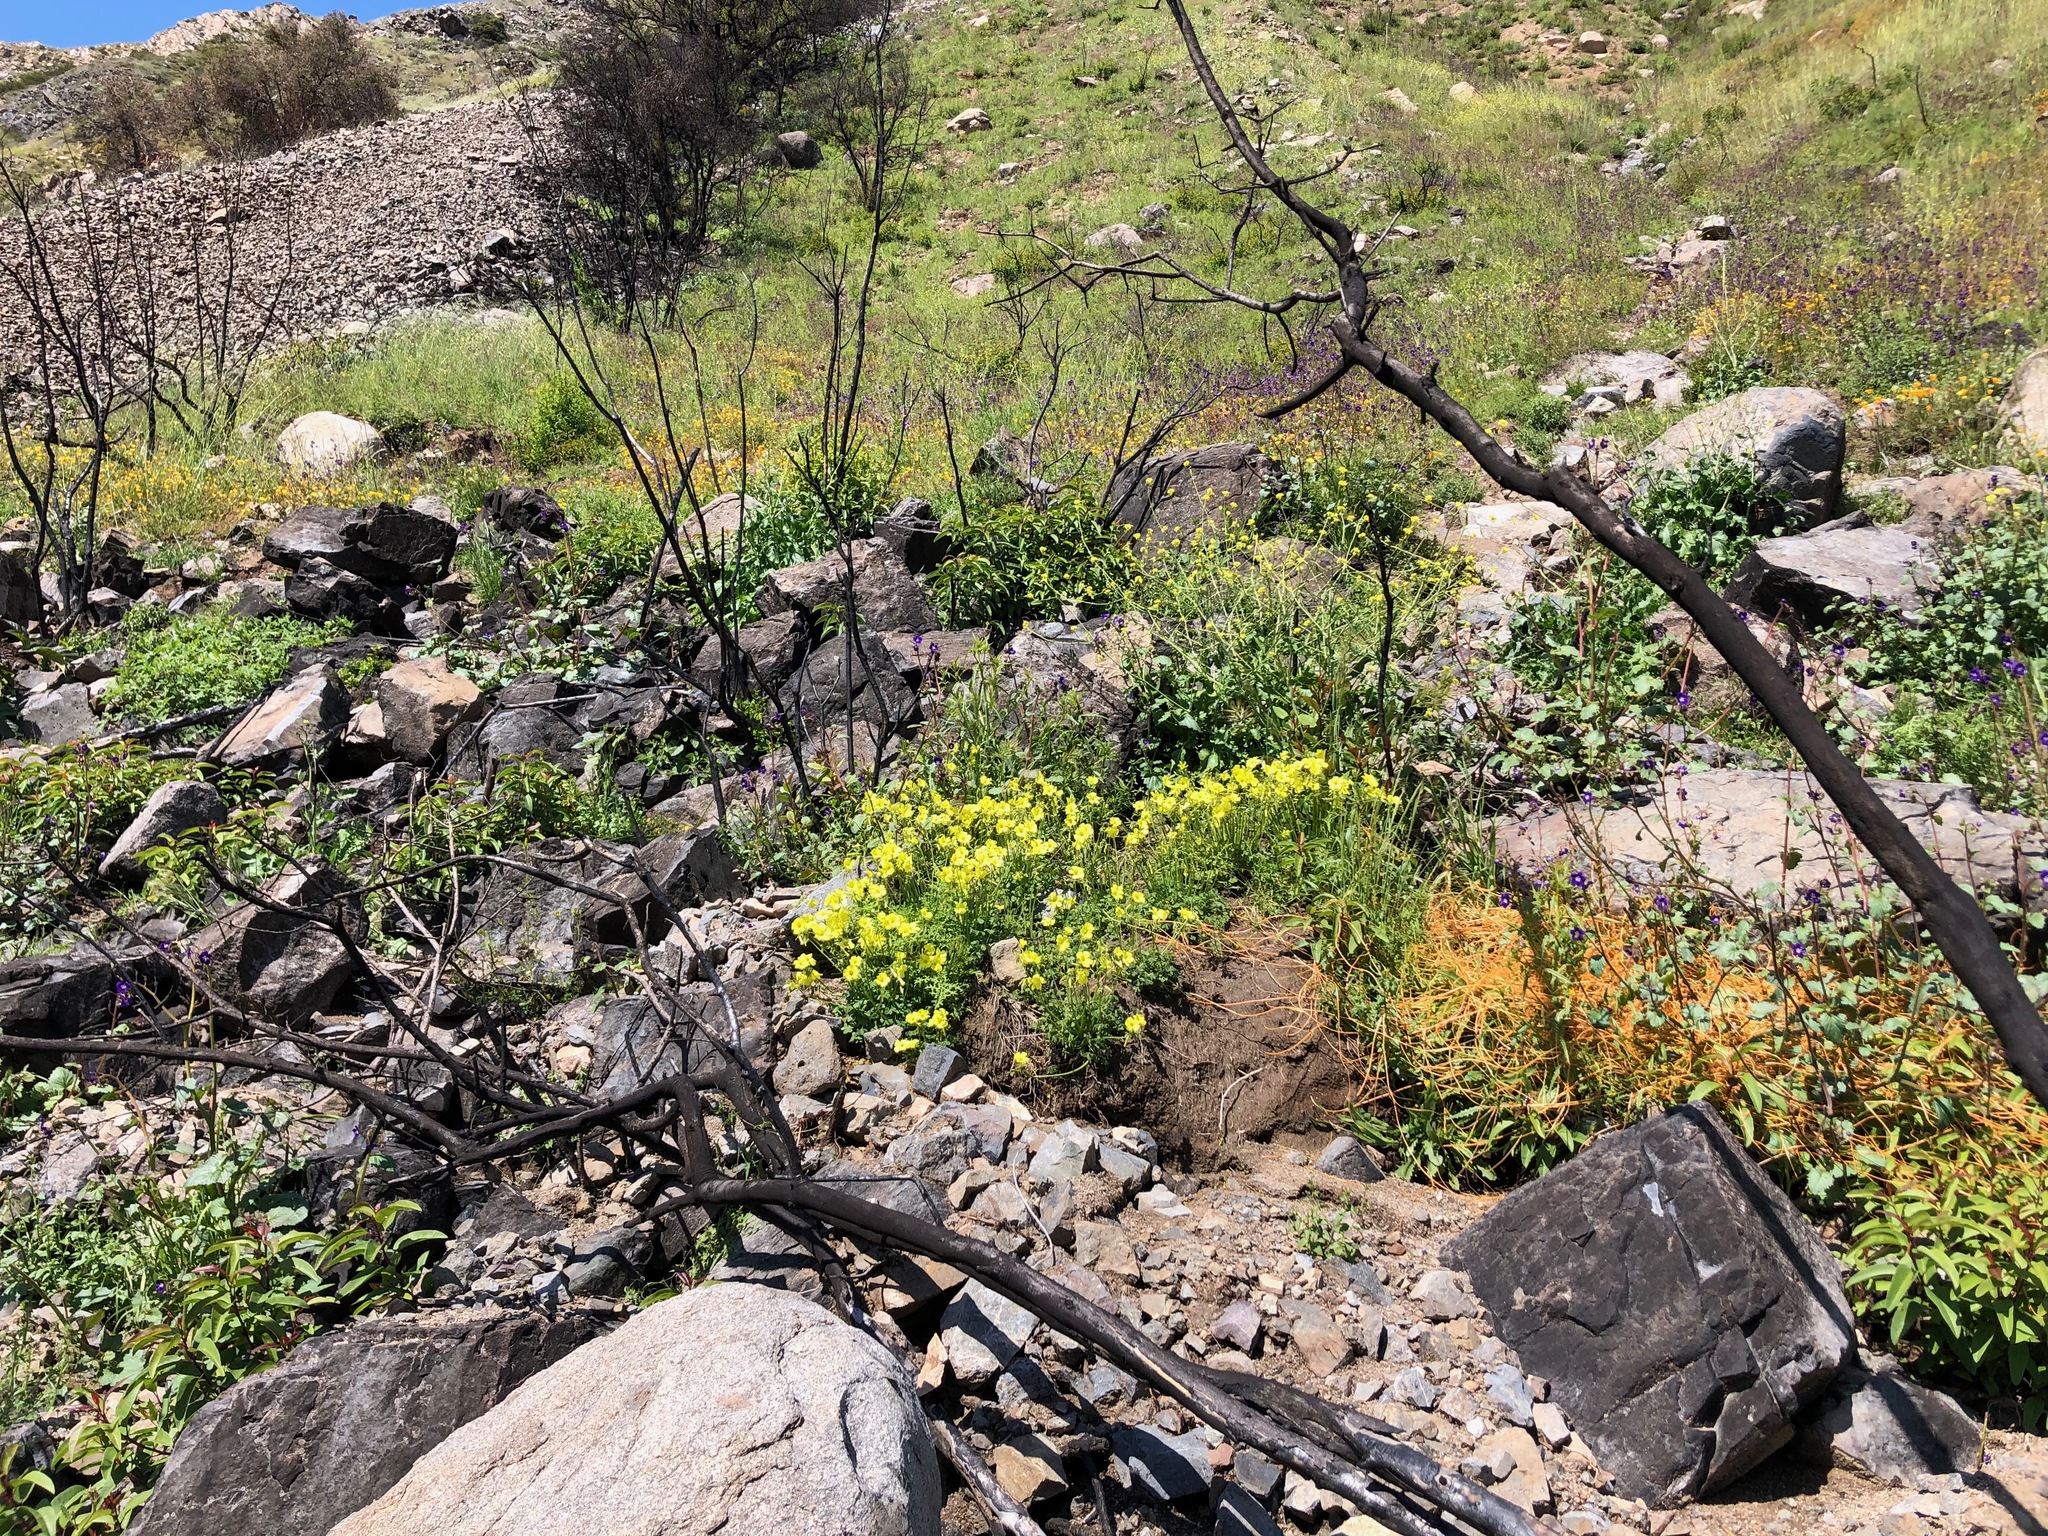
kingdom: Plantae
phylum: Tracheophyta
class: Magnoliopsida
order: Oxalidales
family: Oxalidaceae
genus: Oxalis
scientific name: Oxalis pes-caprae
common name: Bermuda-buttercup
